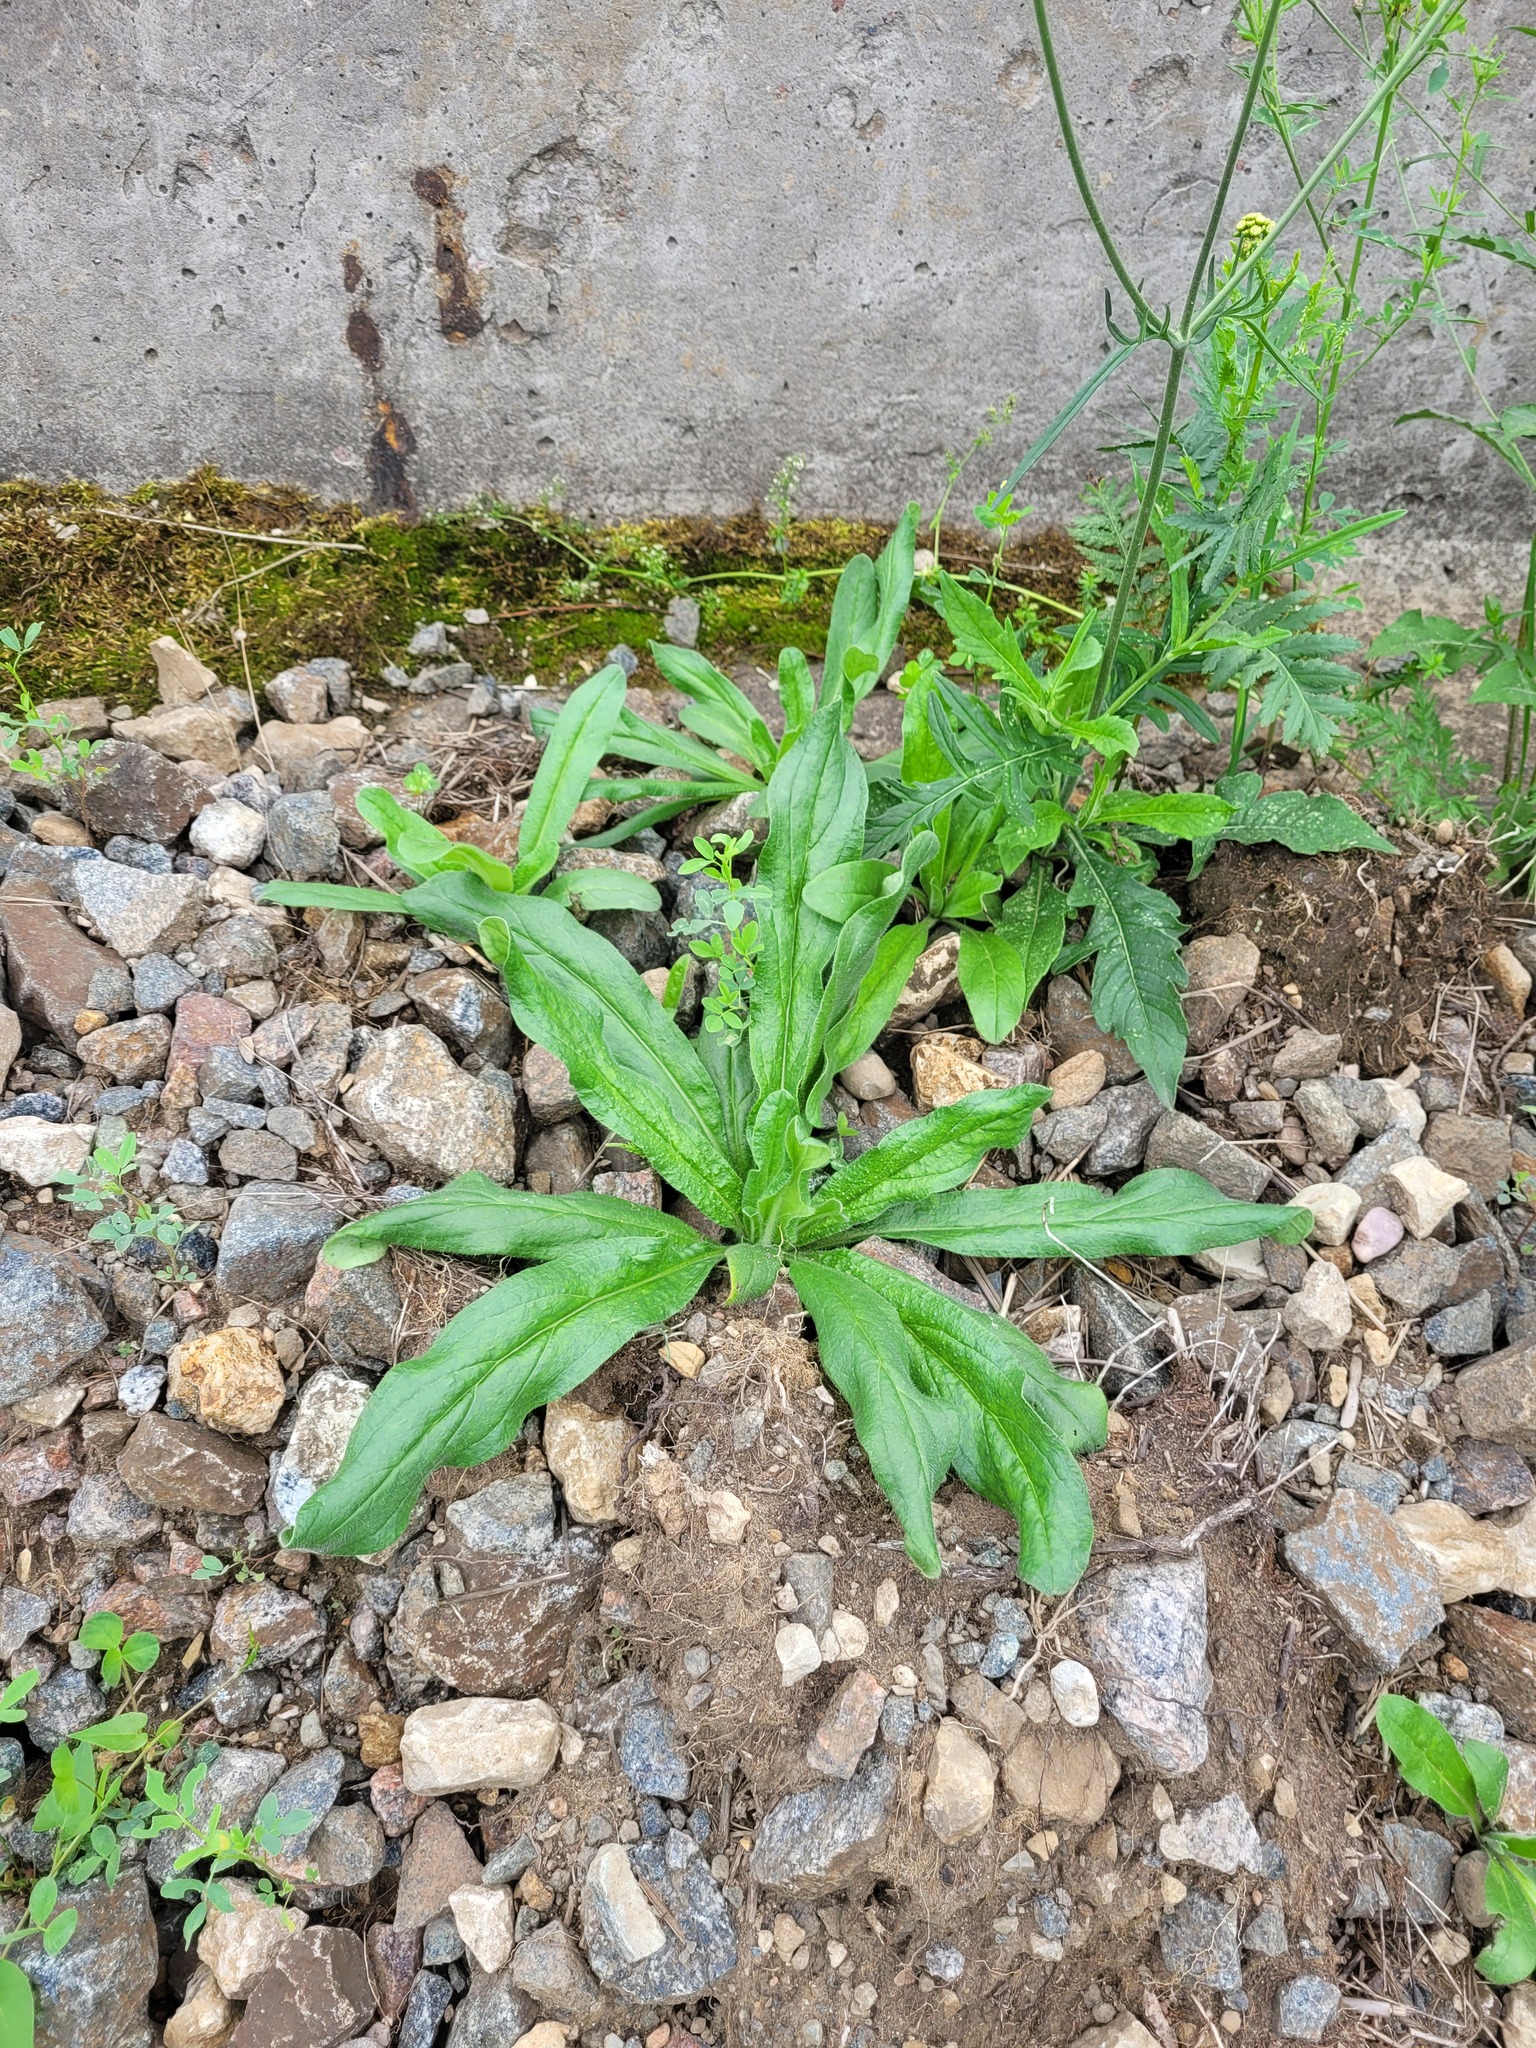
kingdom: Plantae
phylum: Tracheophyta
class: Magnoliopsida
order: Boraginales
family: Boraginaceae
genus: Echium
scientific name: Echium vulgare
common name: Common viper's bugloss
